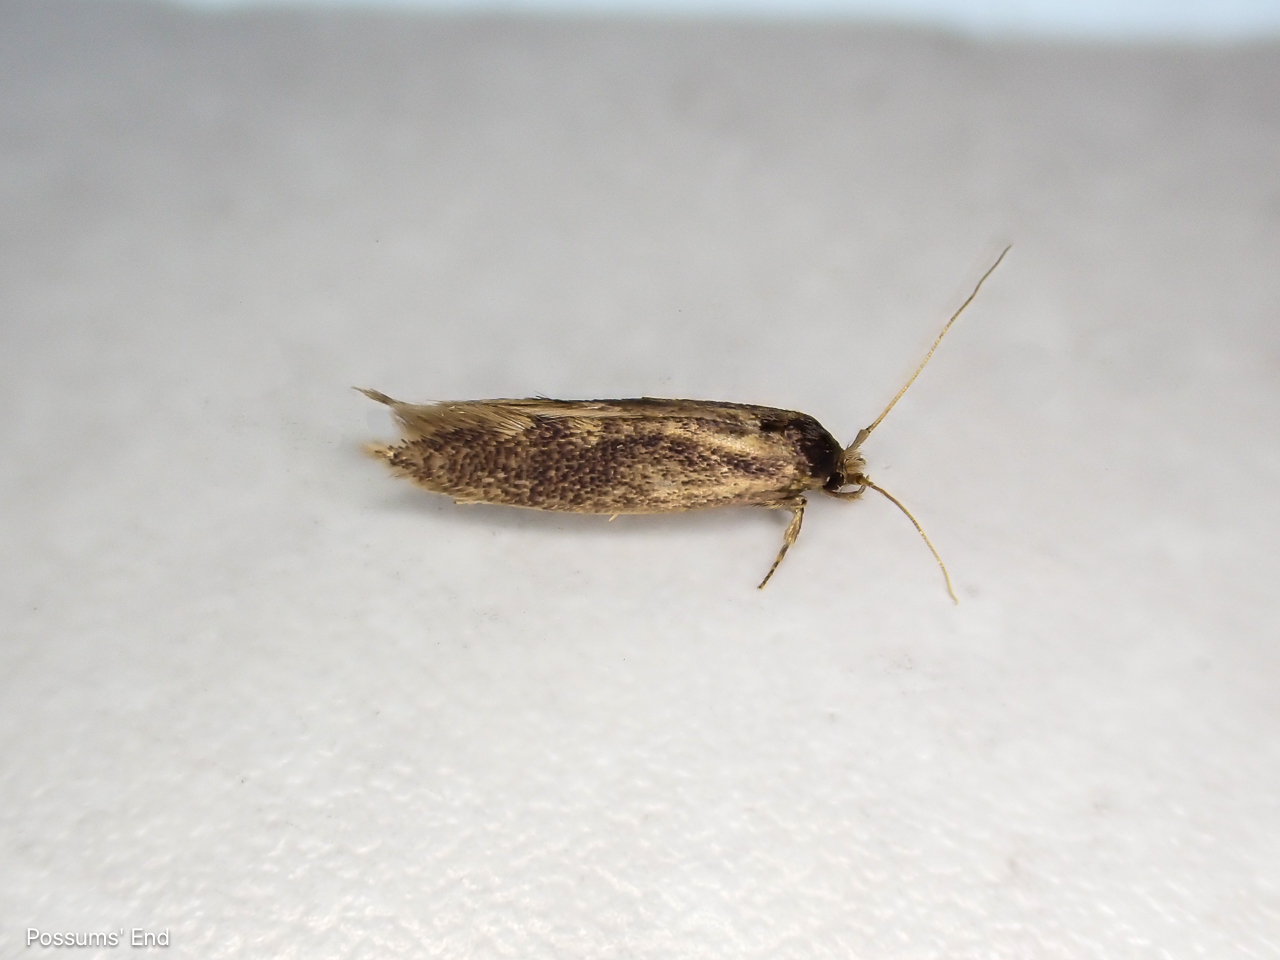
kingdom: Animalia
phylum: Arthropoda
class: Insecta
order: Lepidoptera
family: Tineidae
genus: Opogona
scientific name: Opogona omoscopa
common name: Moth
